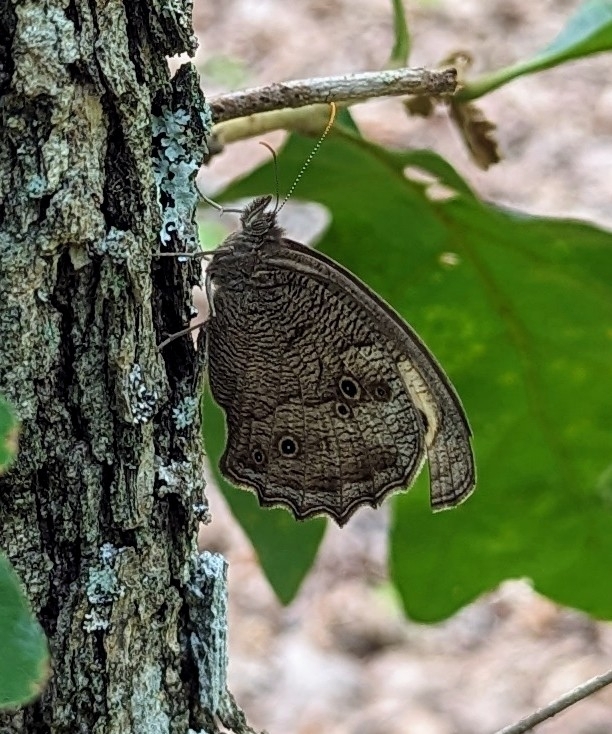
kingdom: Animalia
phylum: Arthropoda
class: Insecta
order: Lepidoptera
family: Nymphalidae
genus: Cercyonis
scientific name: Cercyonis pegala
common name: Common wood-nymph
